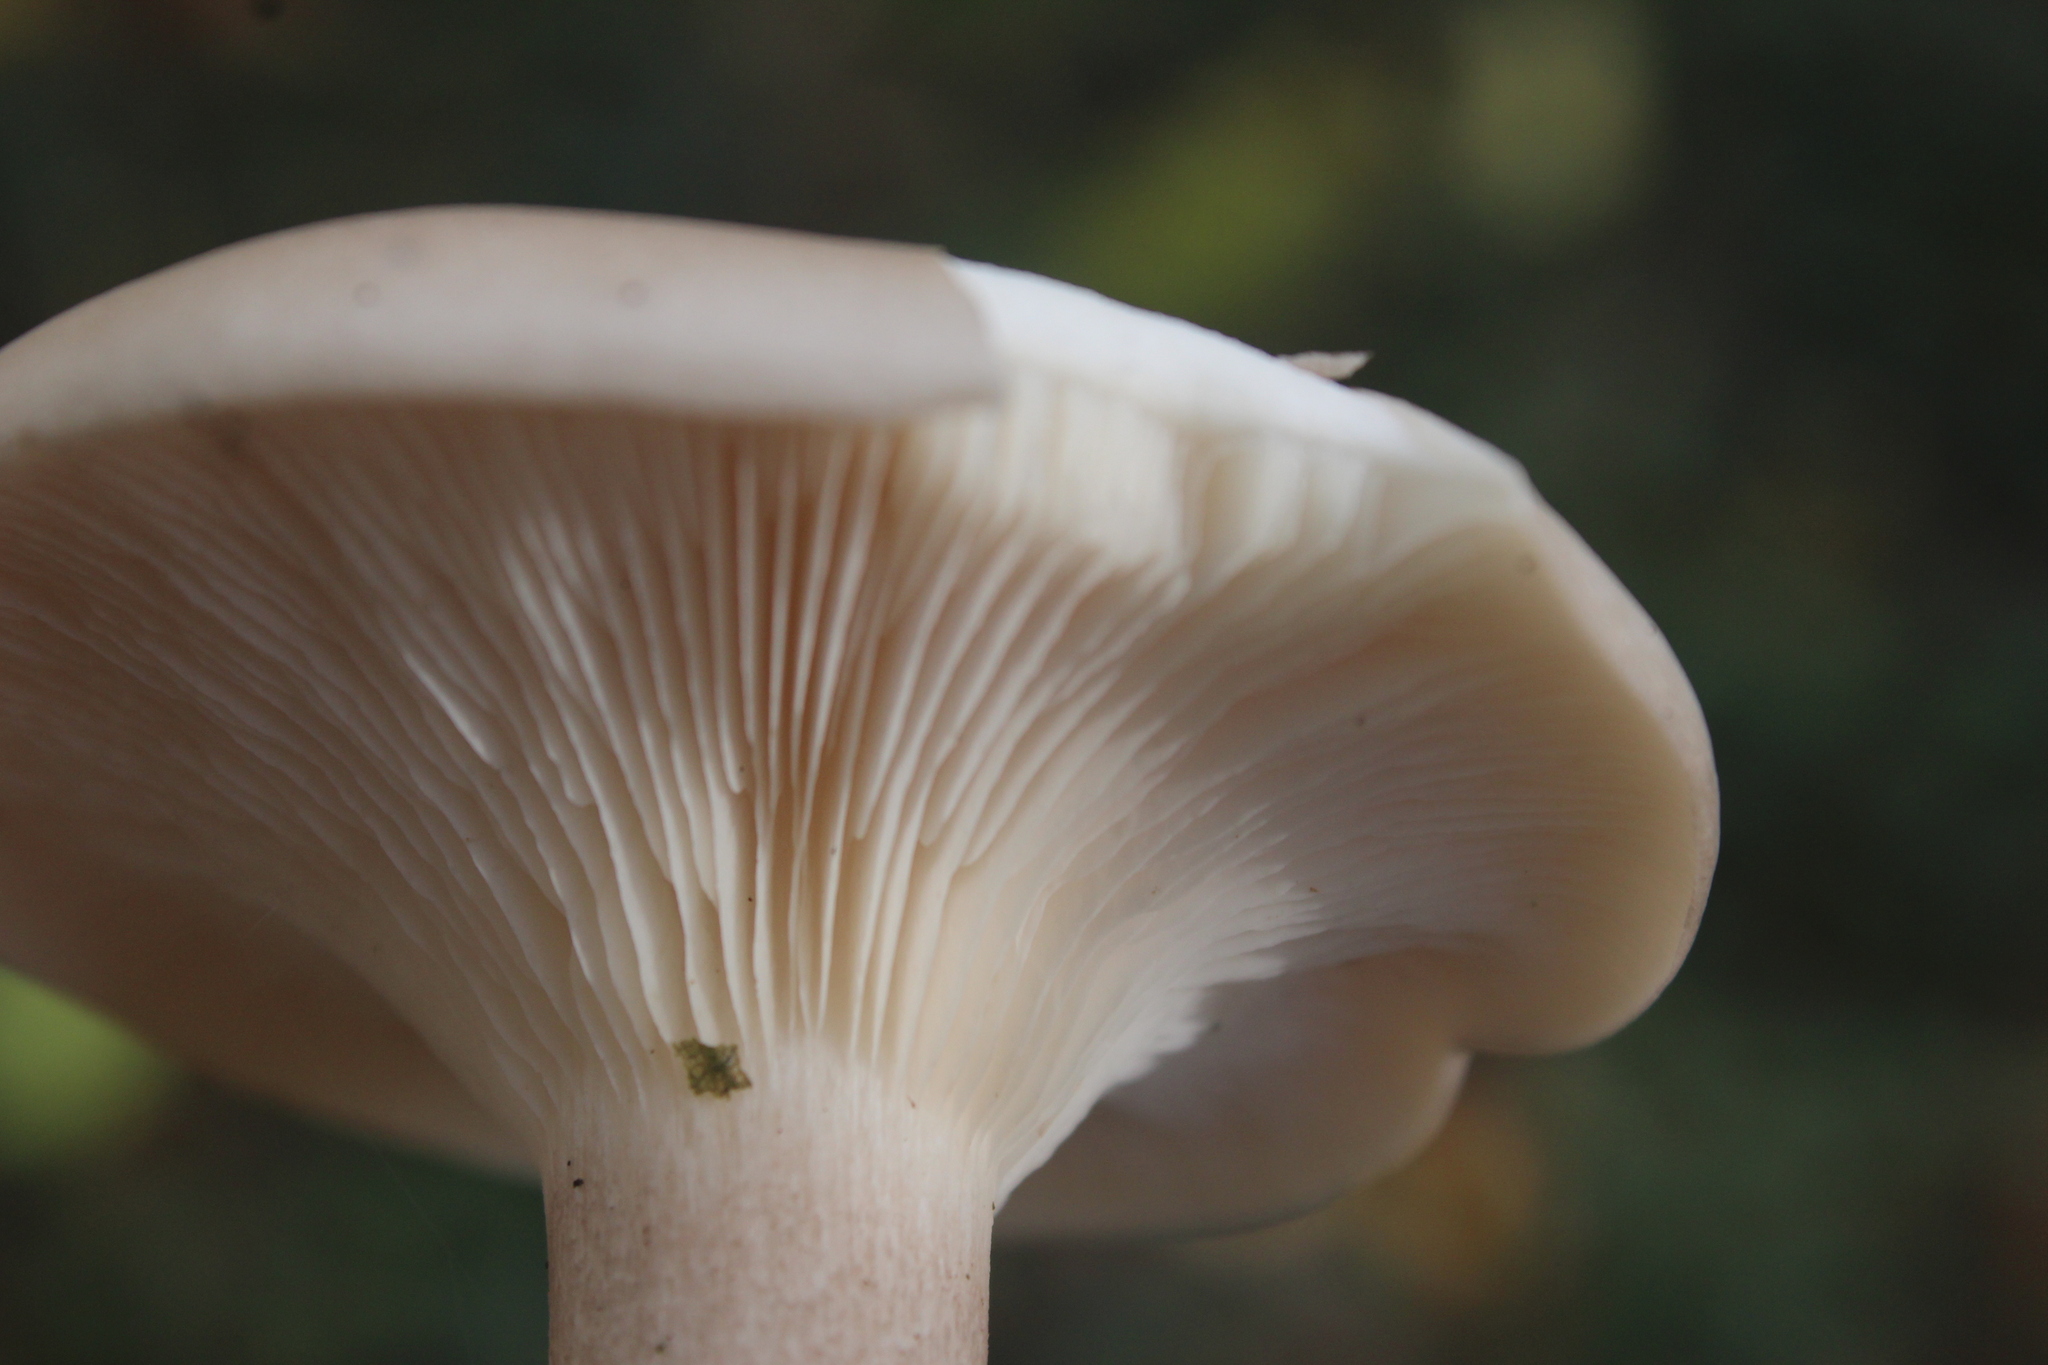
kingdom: Fungi
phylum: Basidiomycota
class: Agaricomycetes
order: Agaricales
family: Tricholomataceae
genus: Clitocybe
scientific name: Clitocybe nebularis
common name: Clouded agaric
